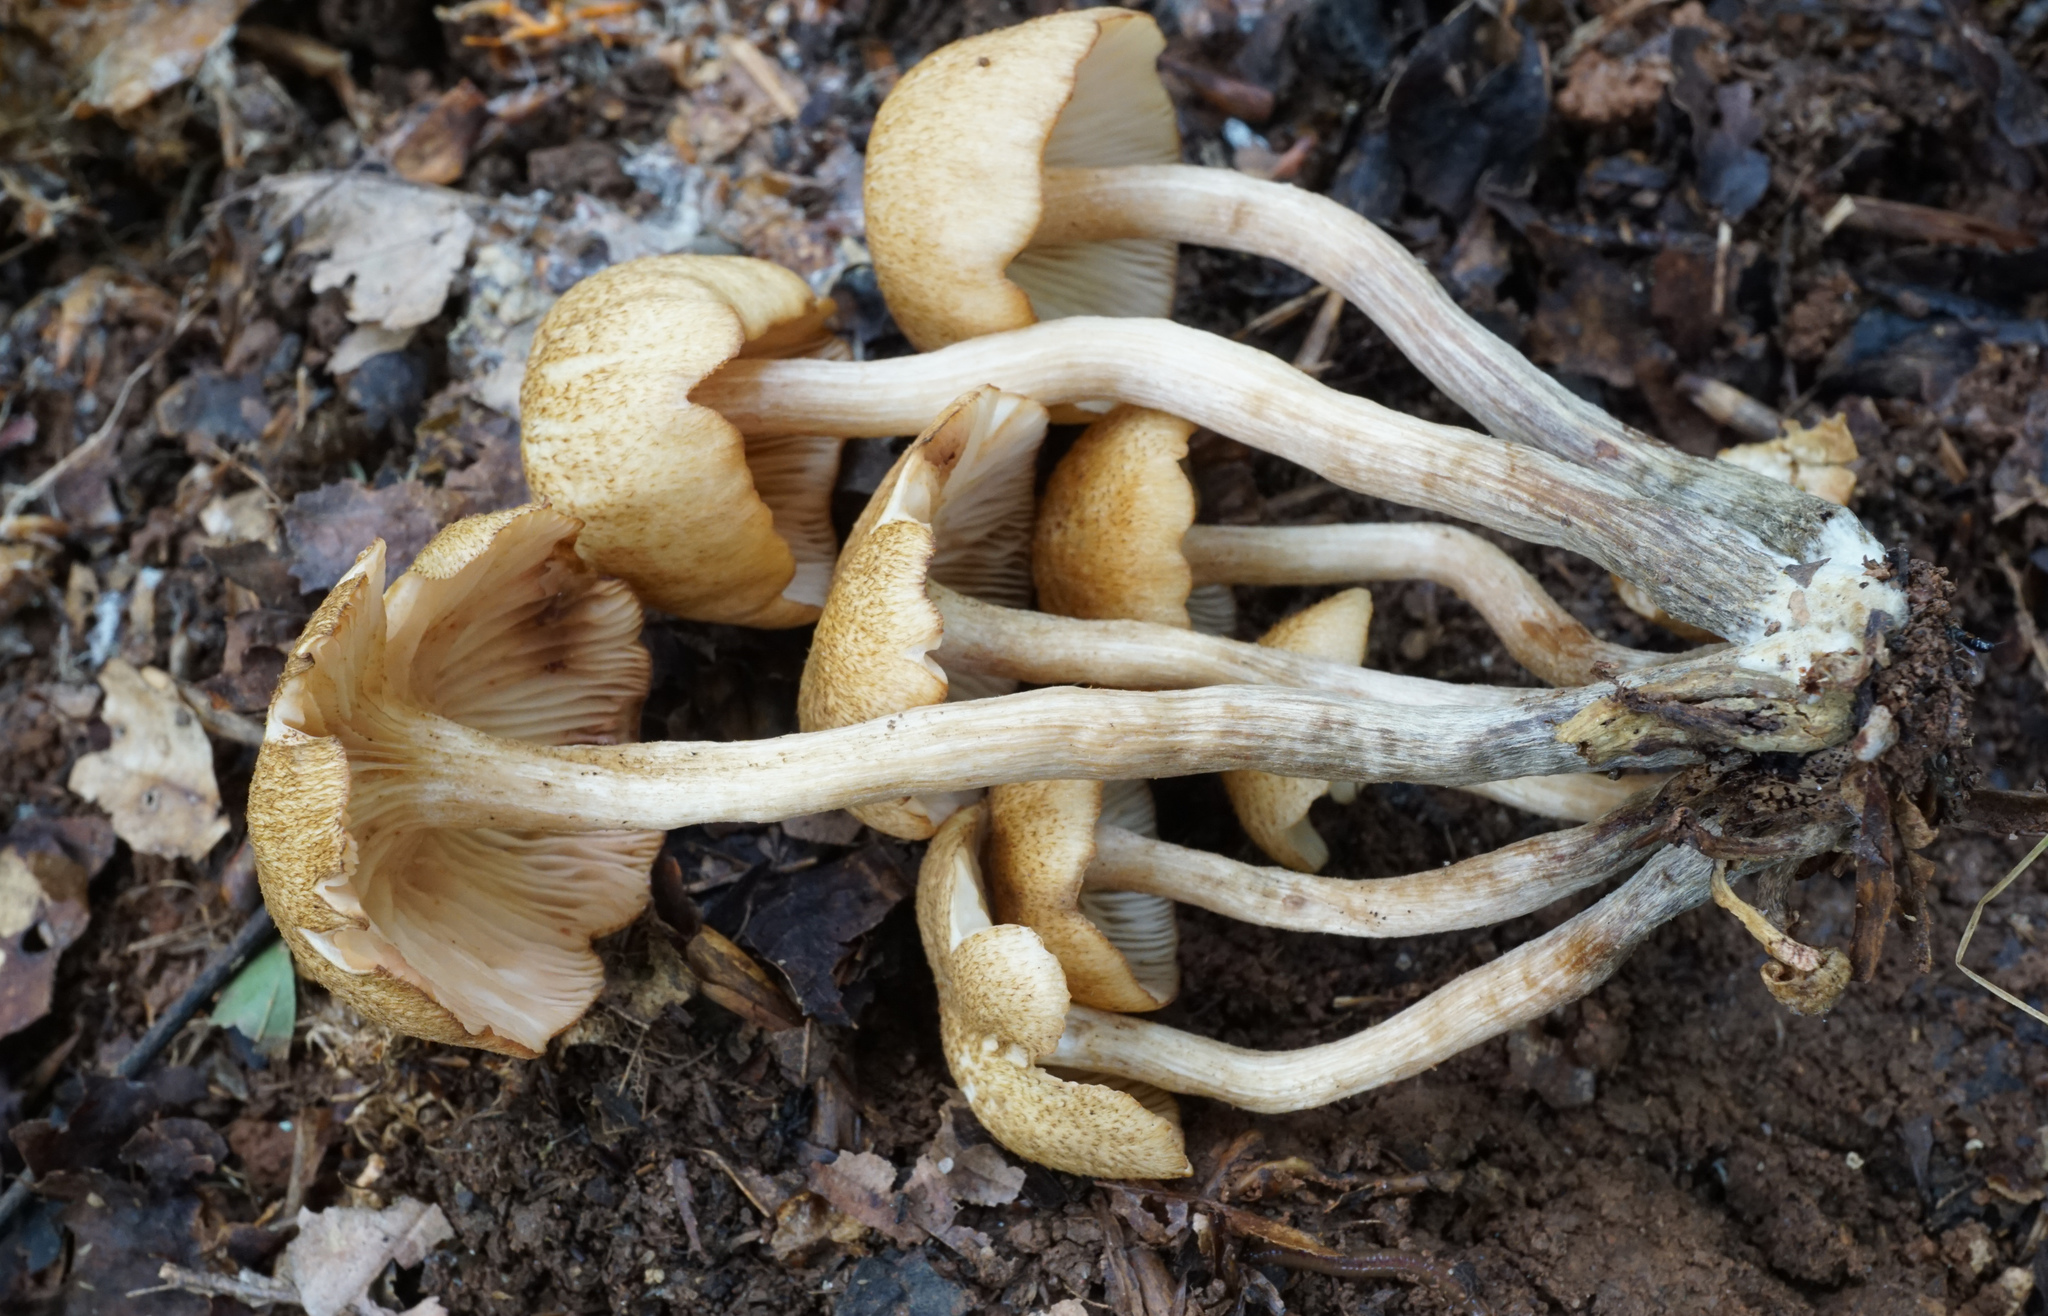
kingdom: Fungi
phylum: Basidiomycota
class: Agaricomycetes
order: Agaricales
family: Physalacriaceae
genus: Desarmillaria
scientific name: Desarmillaria caespitosa
